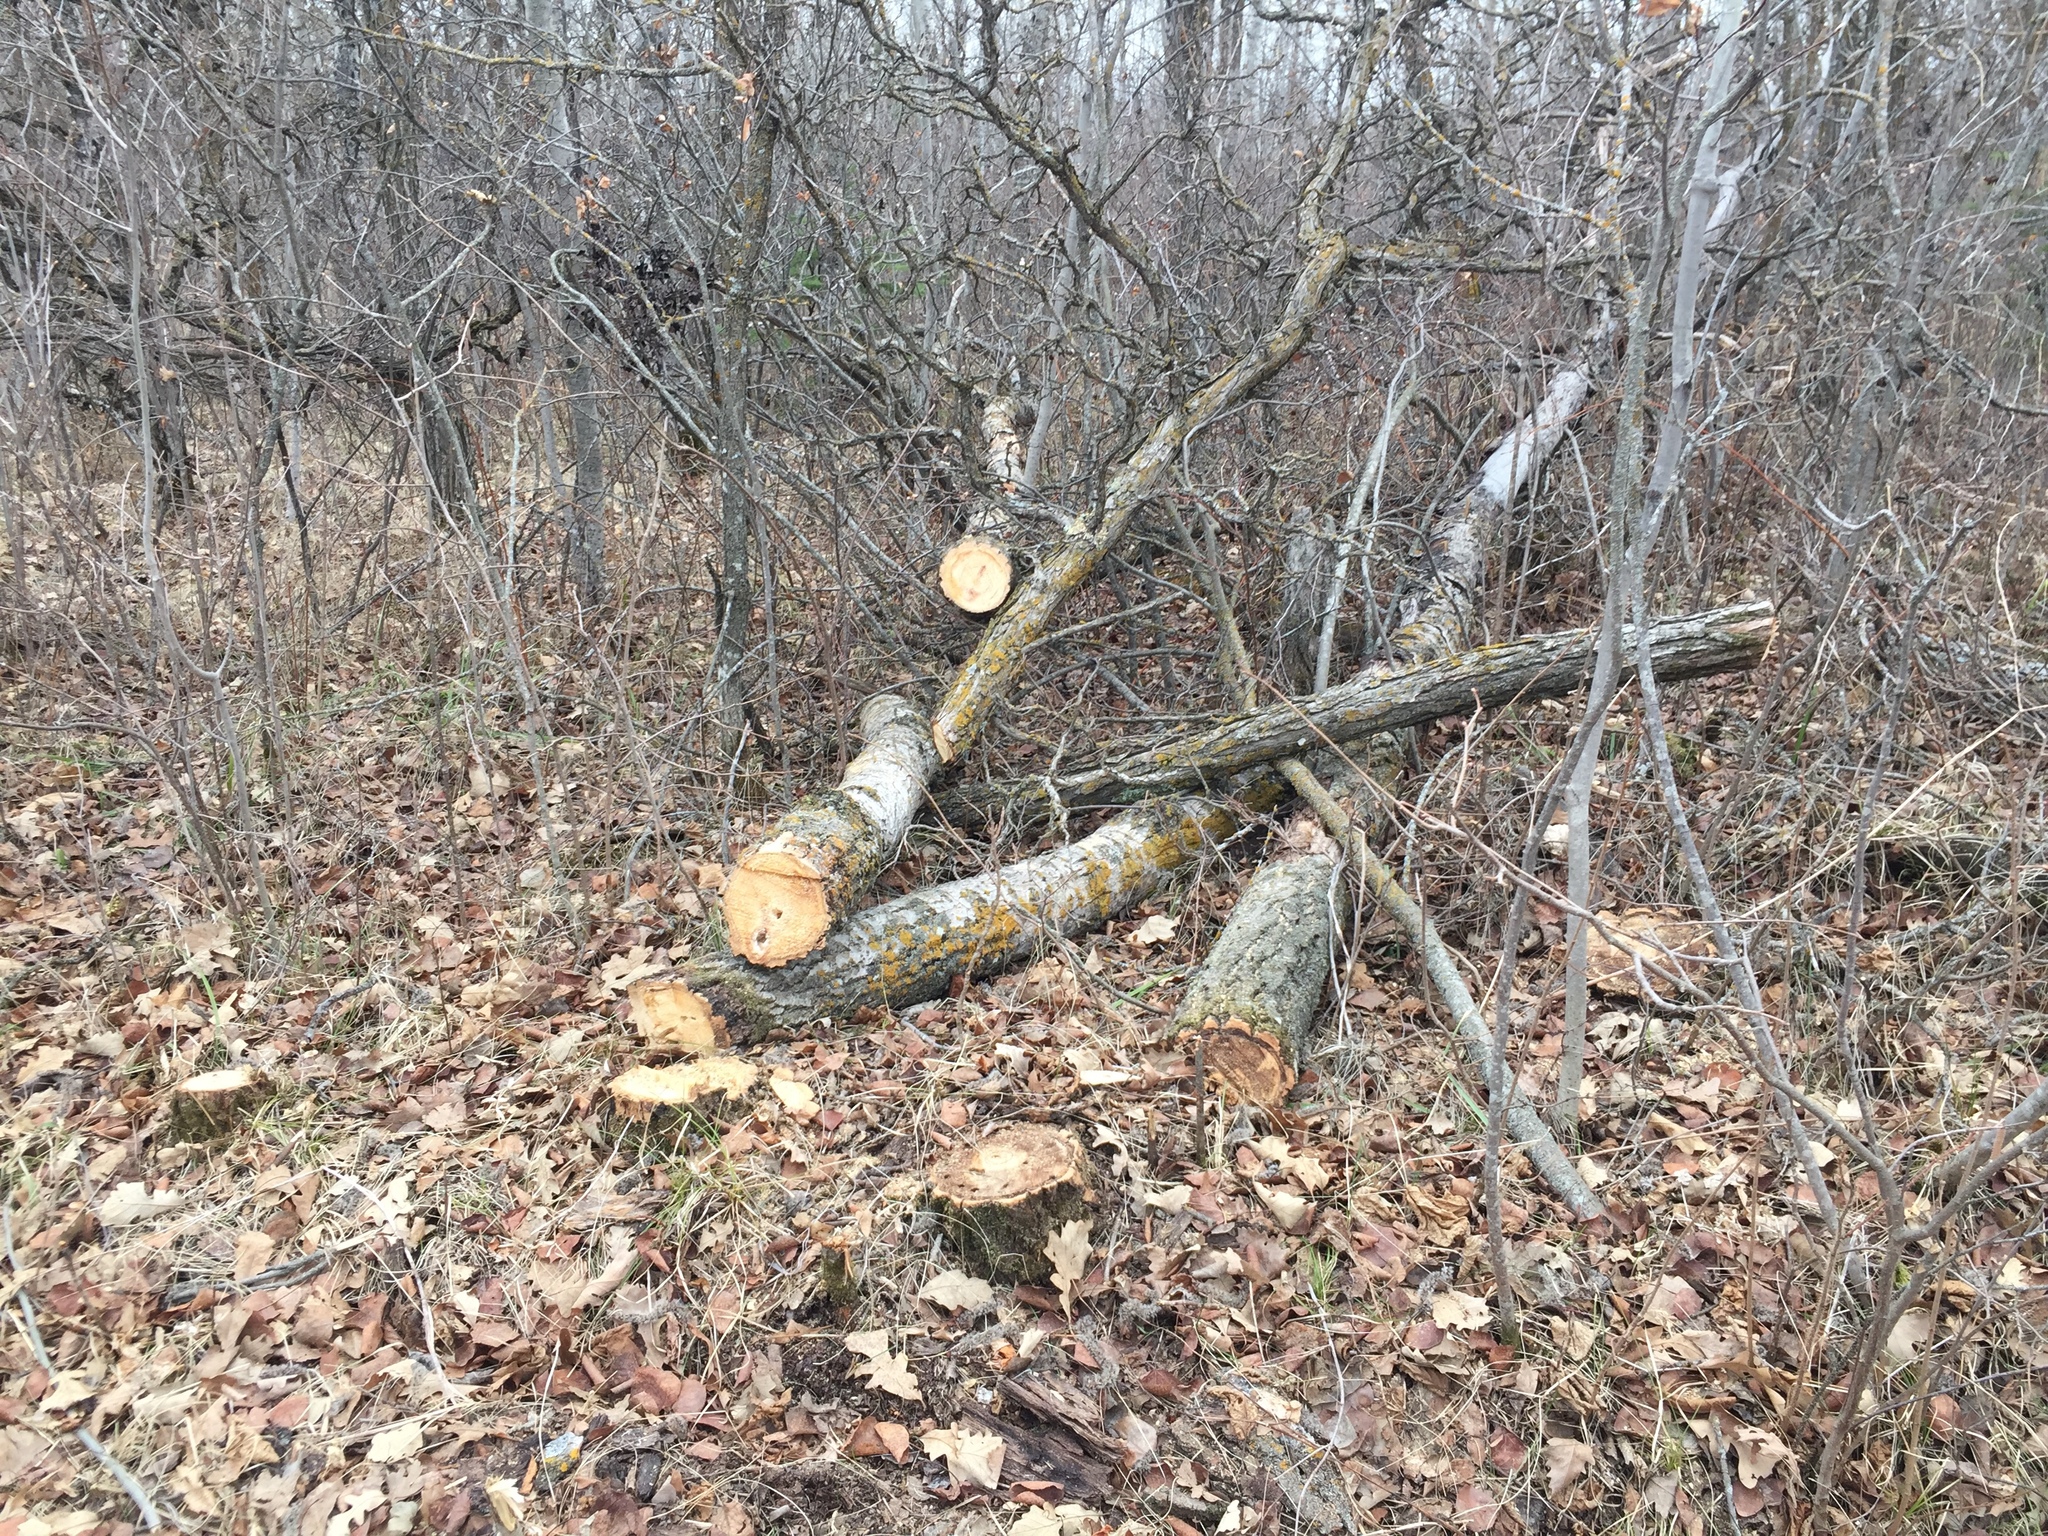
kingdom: Plantae
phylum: Tracheophyta
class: Magnoliopsida
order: Malpighiales
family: Salicaceae
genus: Populus
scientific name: Populus tremuloides
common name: Quaking aspen
